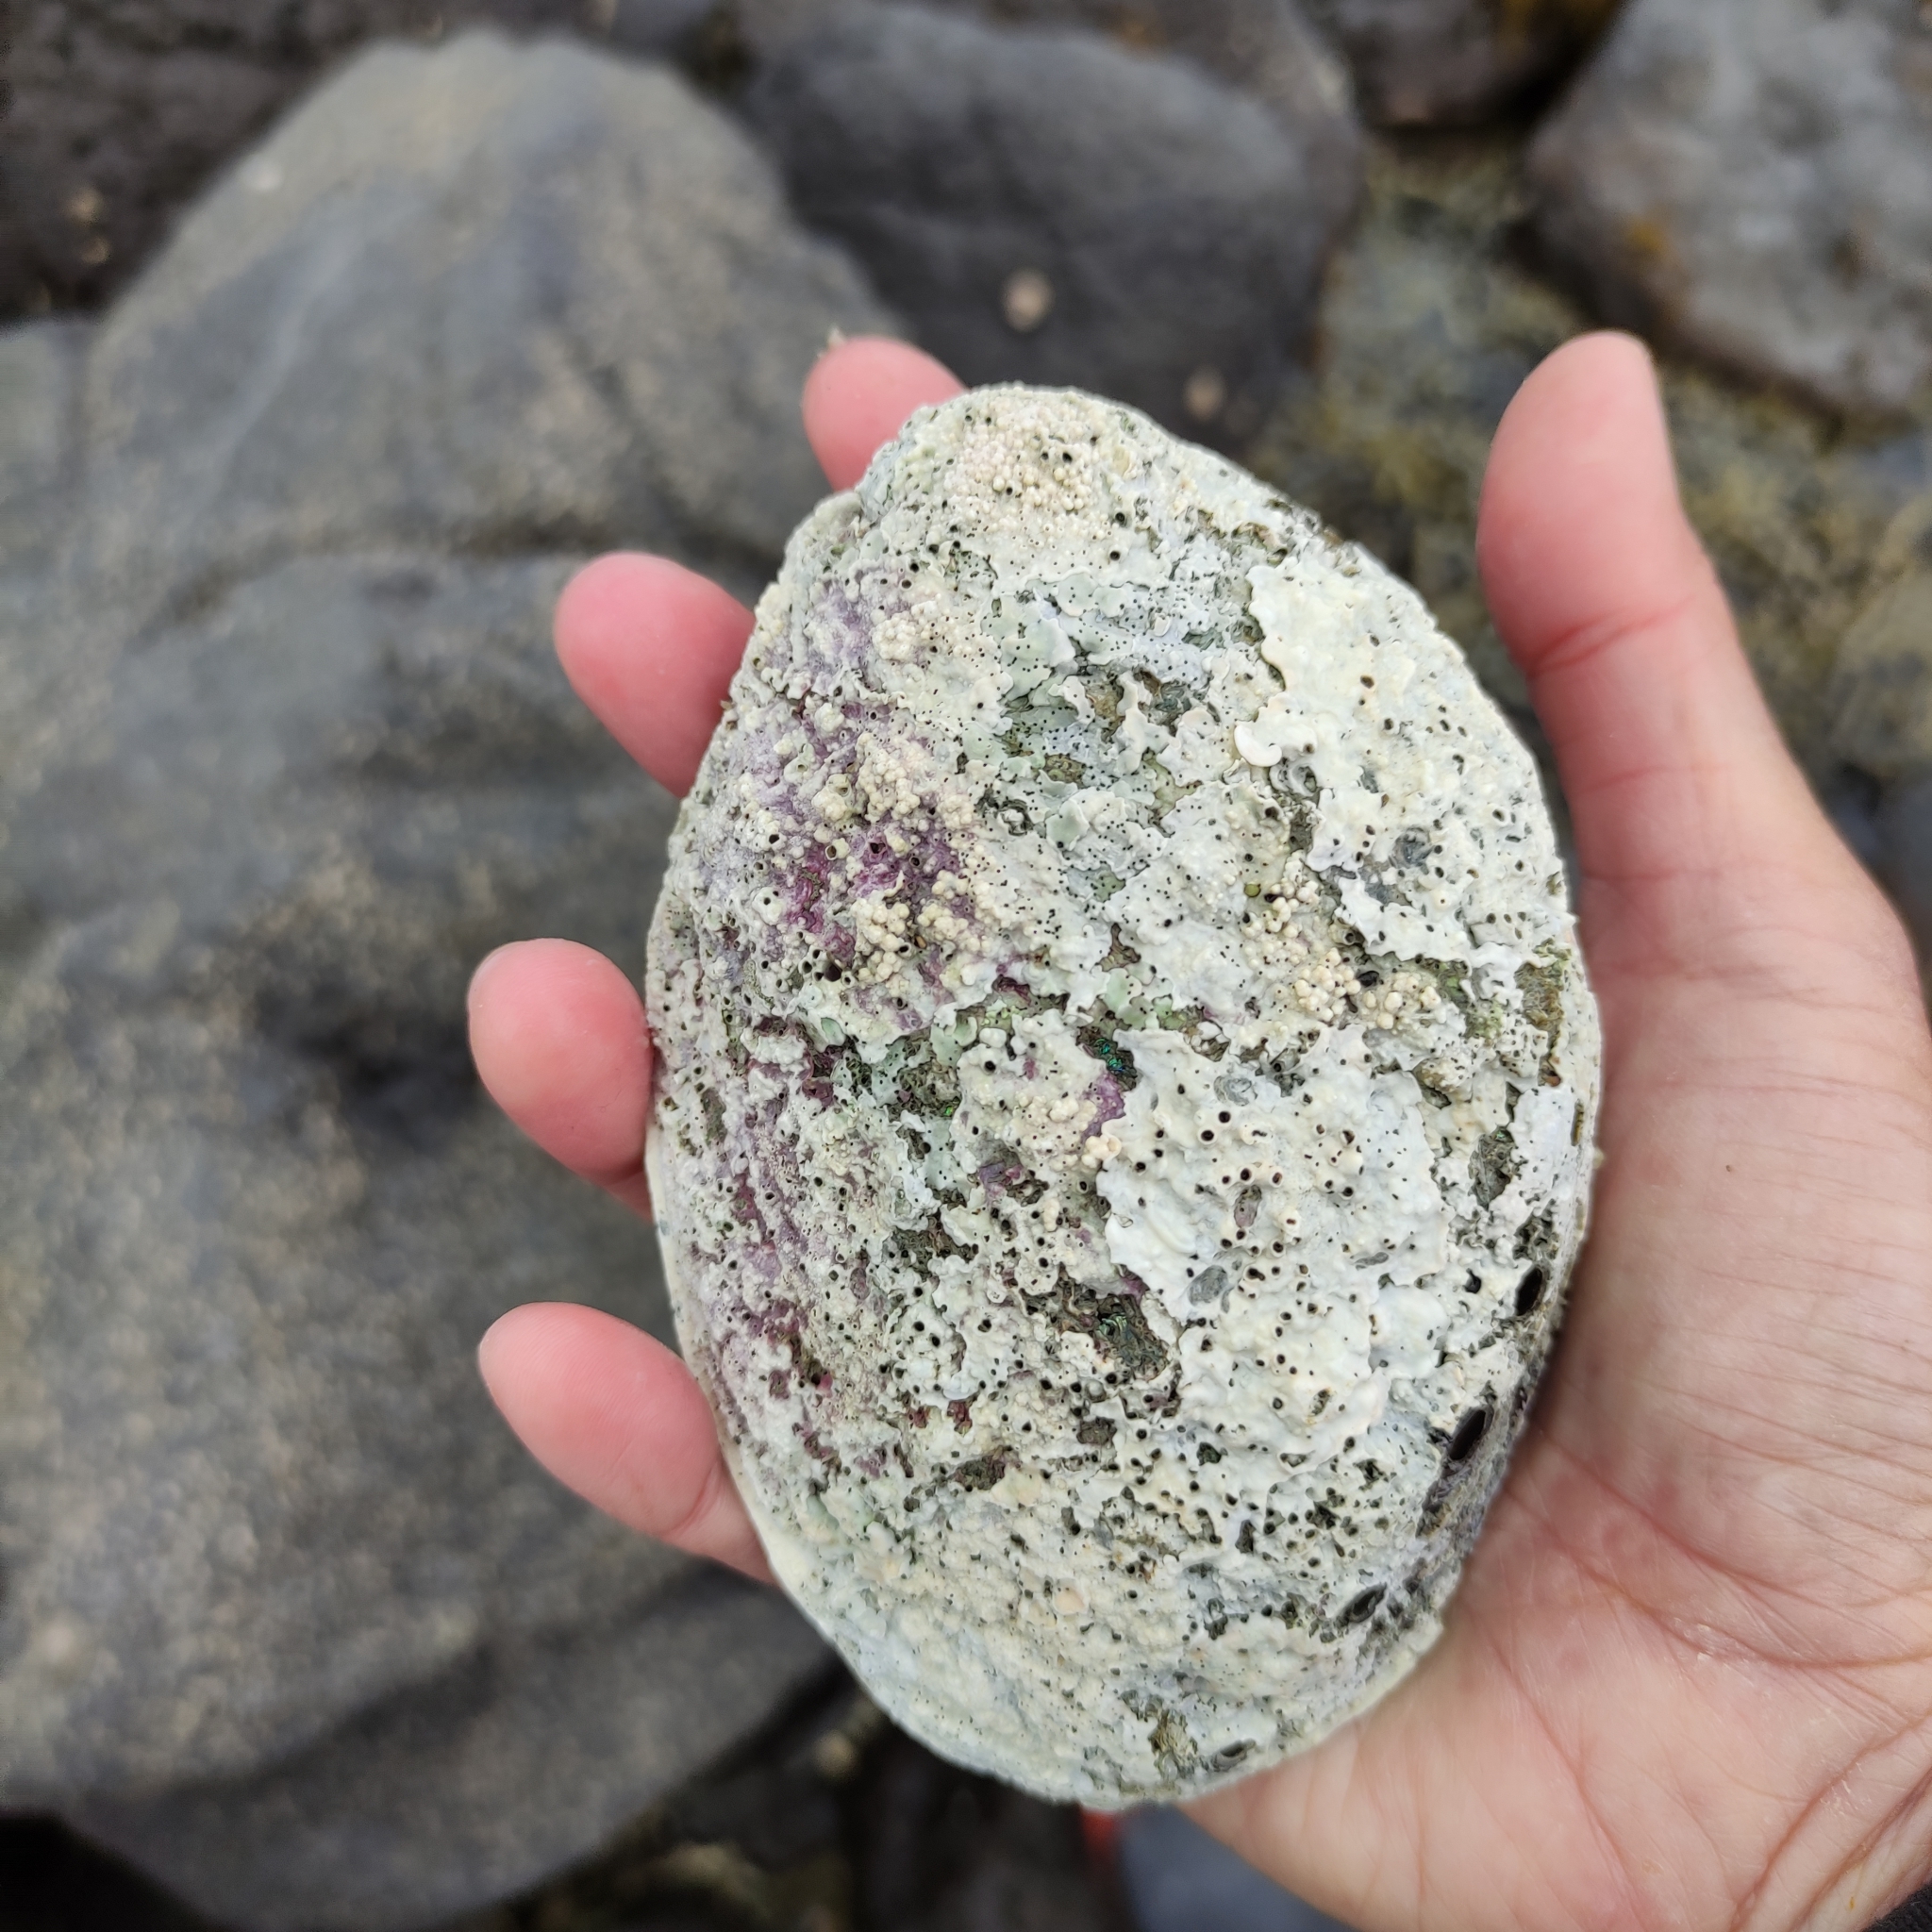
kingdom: Animalia
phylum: Mollusca
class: Gastropoda
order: Lepetellida
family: Haliotidae
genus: Haliotis
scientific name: Haliotis iris
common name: Abalone
